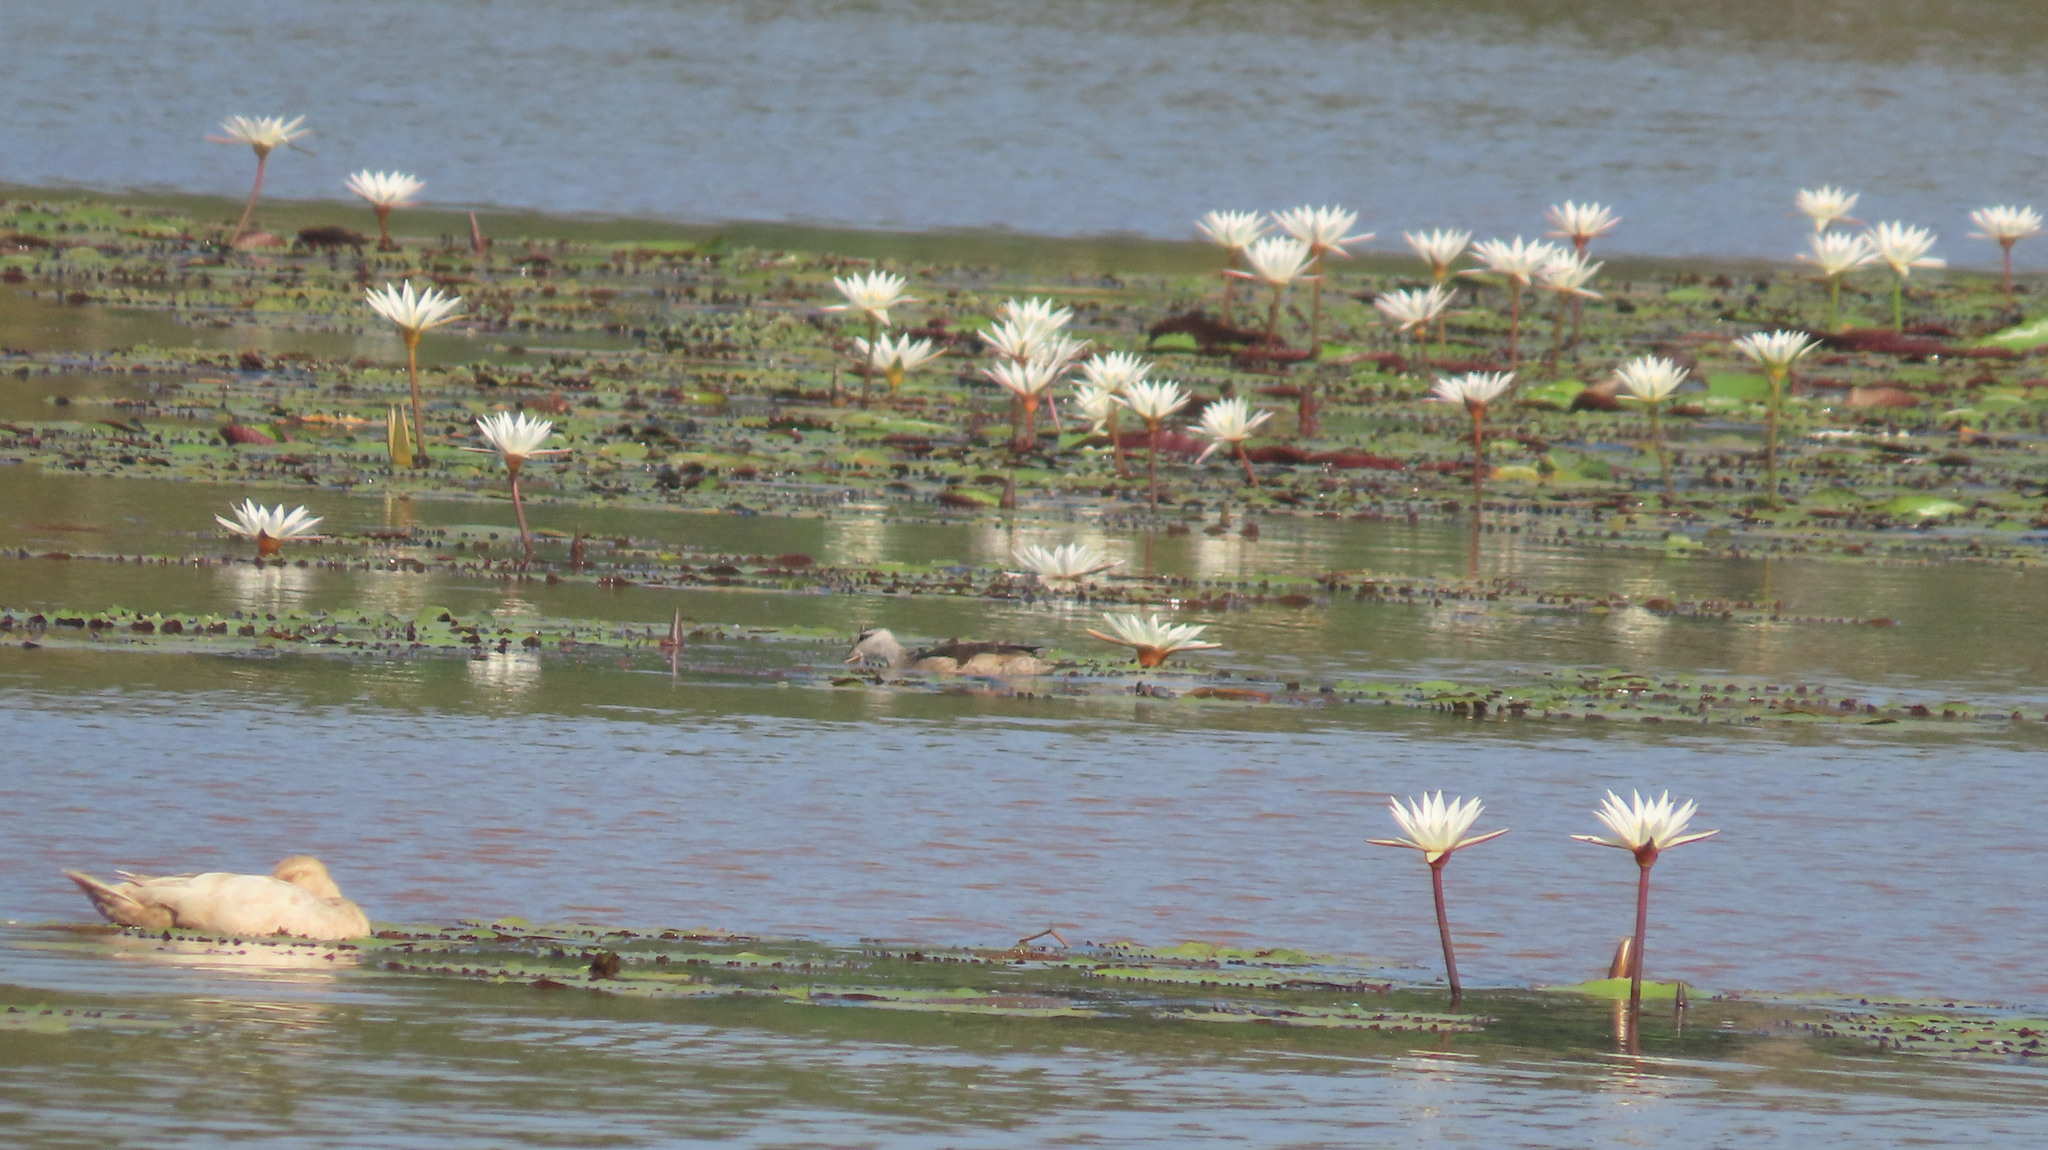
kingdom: Animalia
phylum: Chordata
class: Aves
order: Anseriformes
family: Anatidae
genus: Nettapus
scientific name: Nettapus coromandelianus
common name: Cotton pygmy-goose
